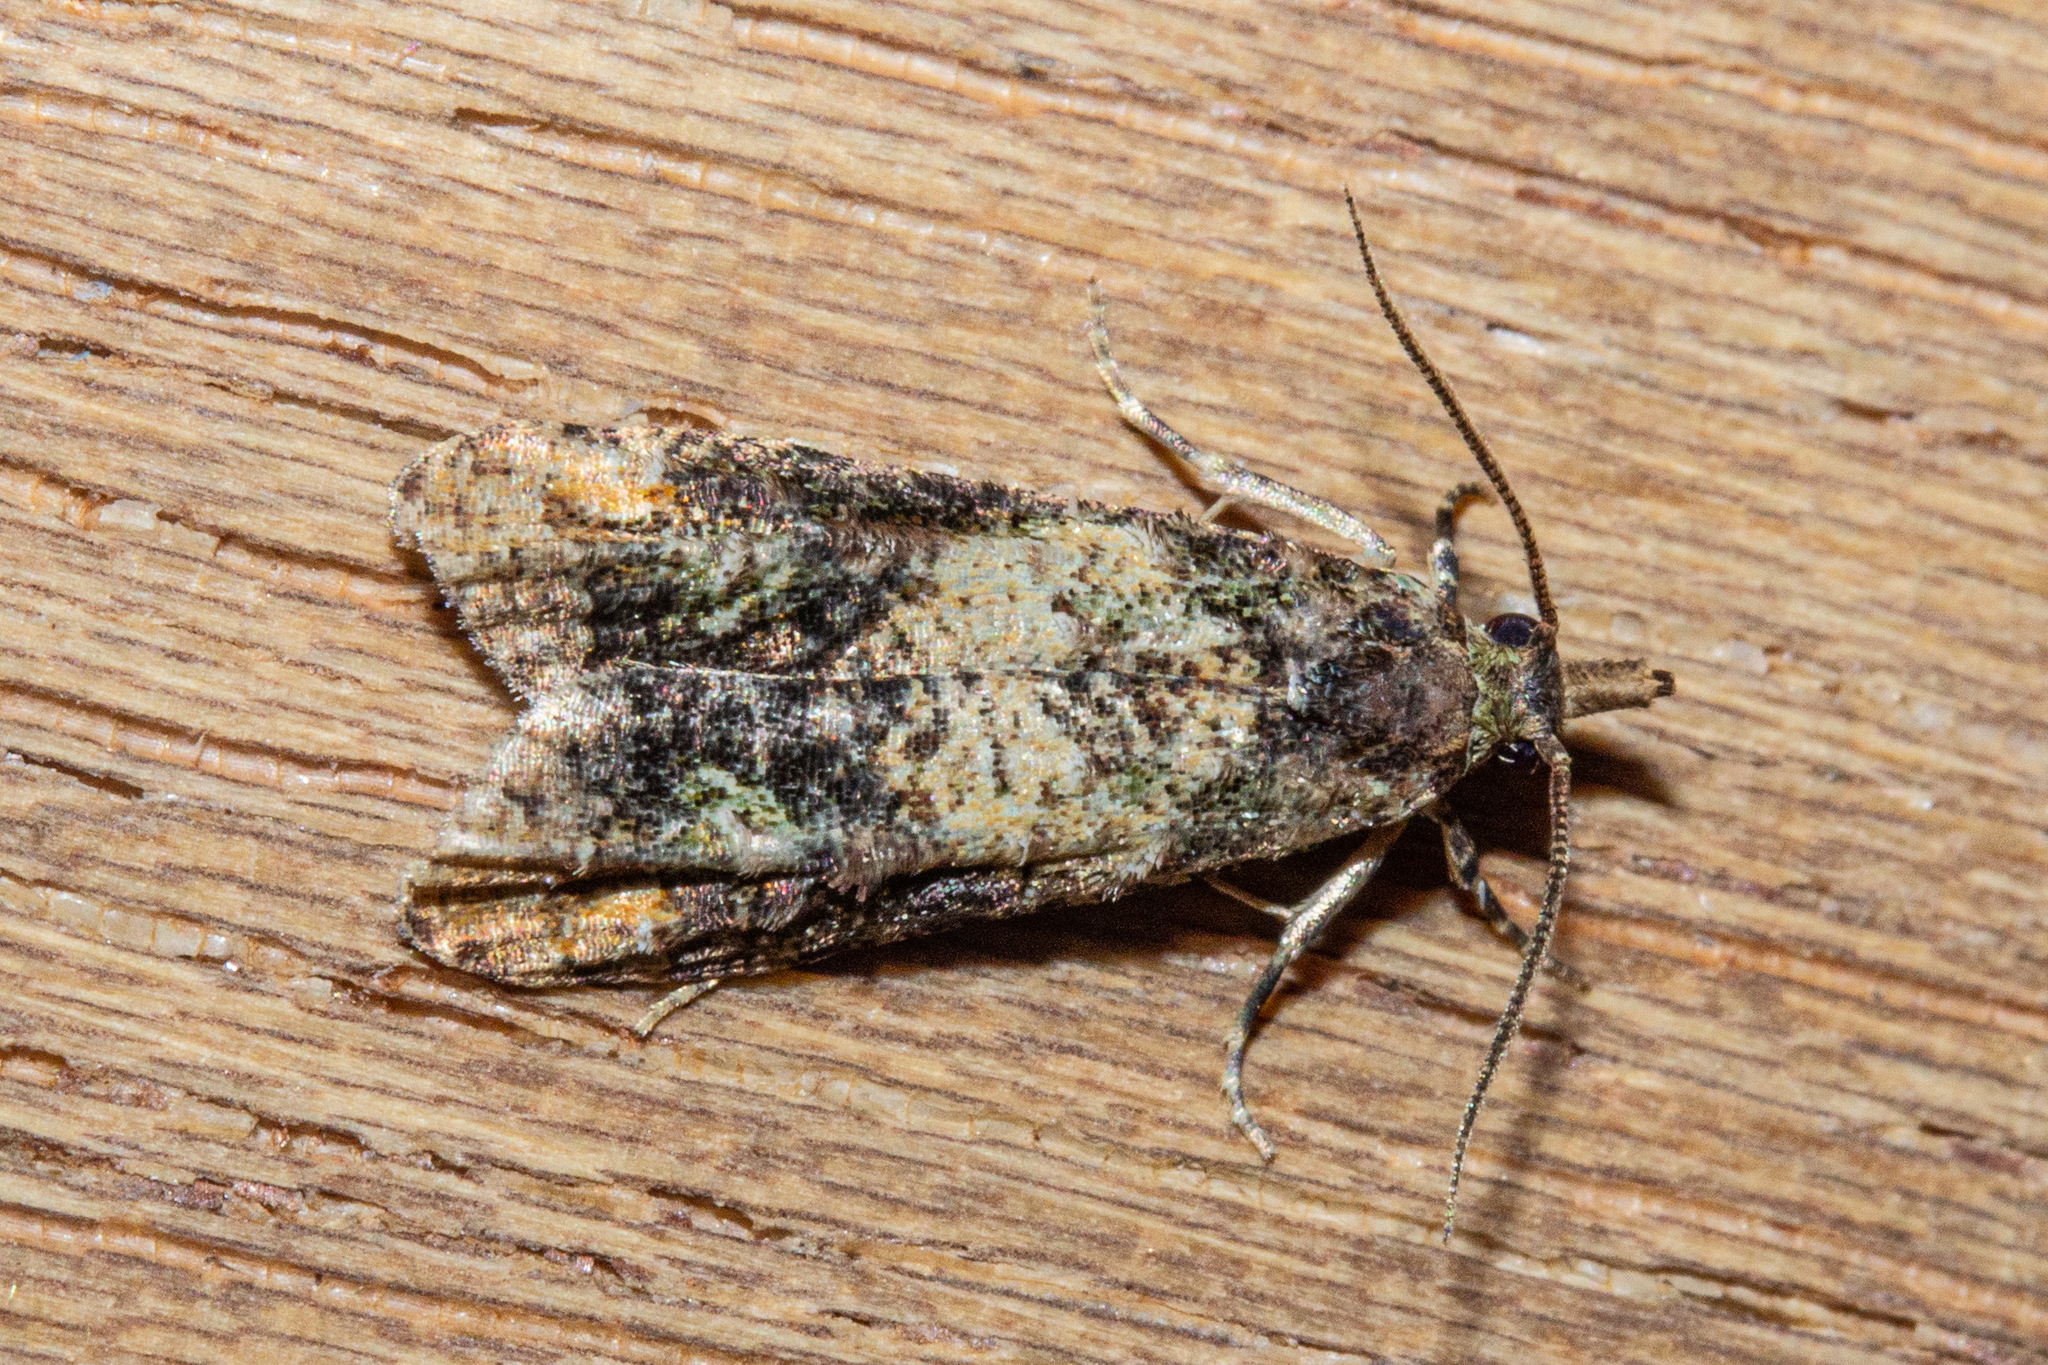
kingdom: Animalia
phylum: Arthropoda
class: Insecta
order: Lepidoptera
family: Copromorphidae
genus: Phycomorpha
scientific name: Phycomorpha metachrysa
